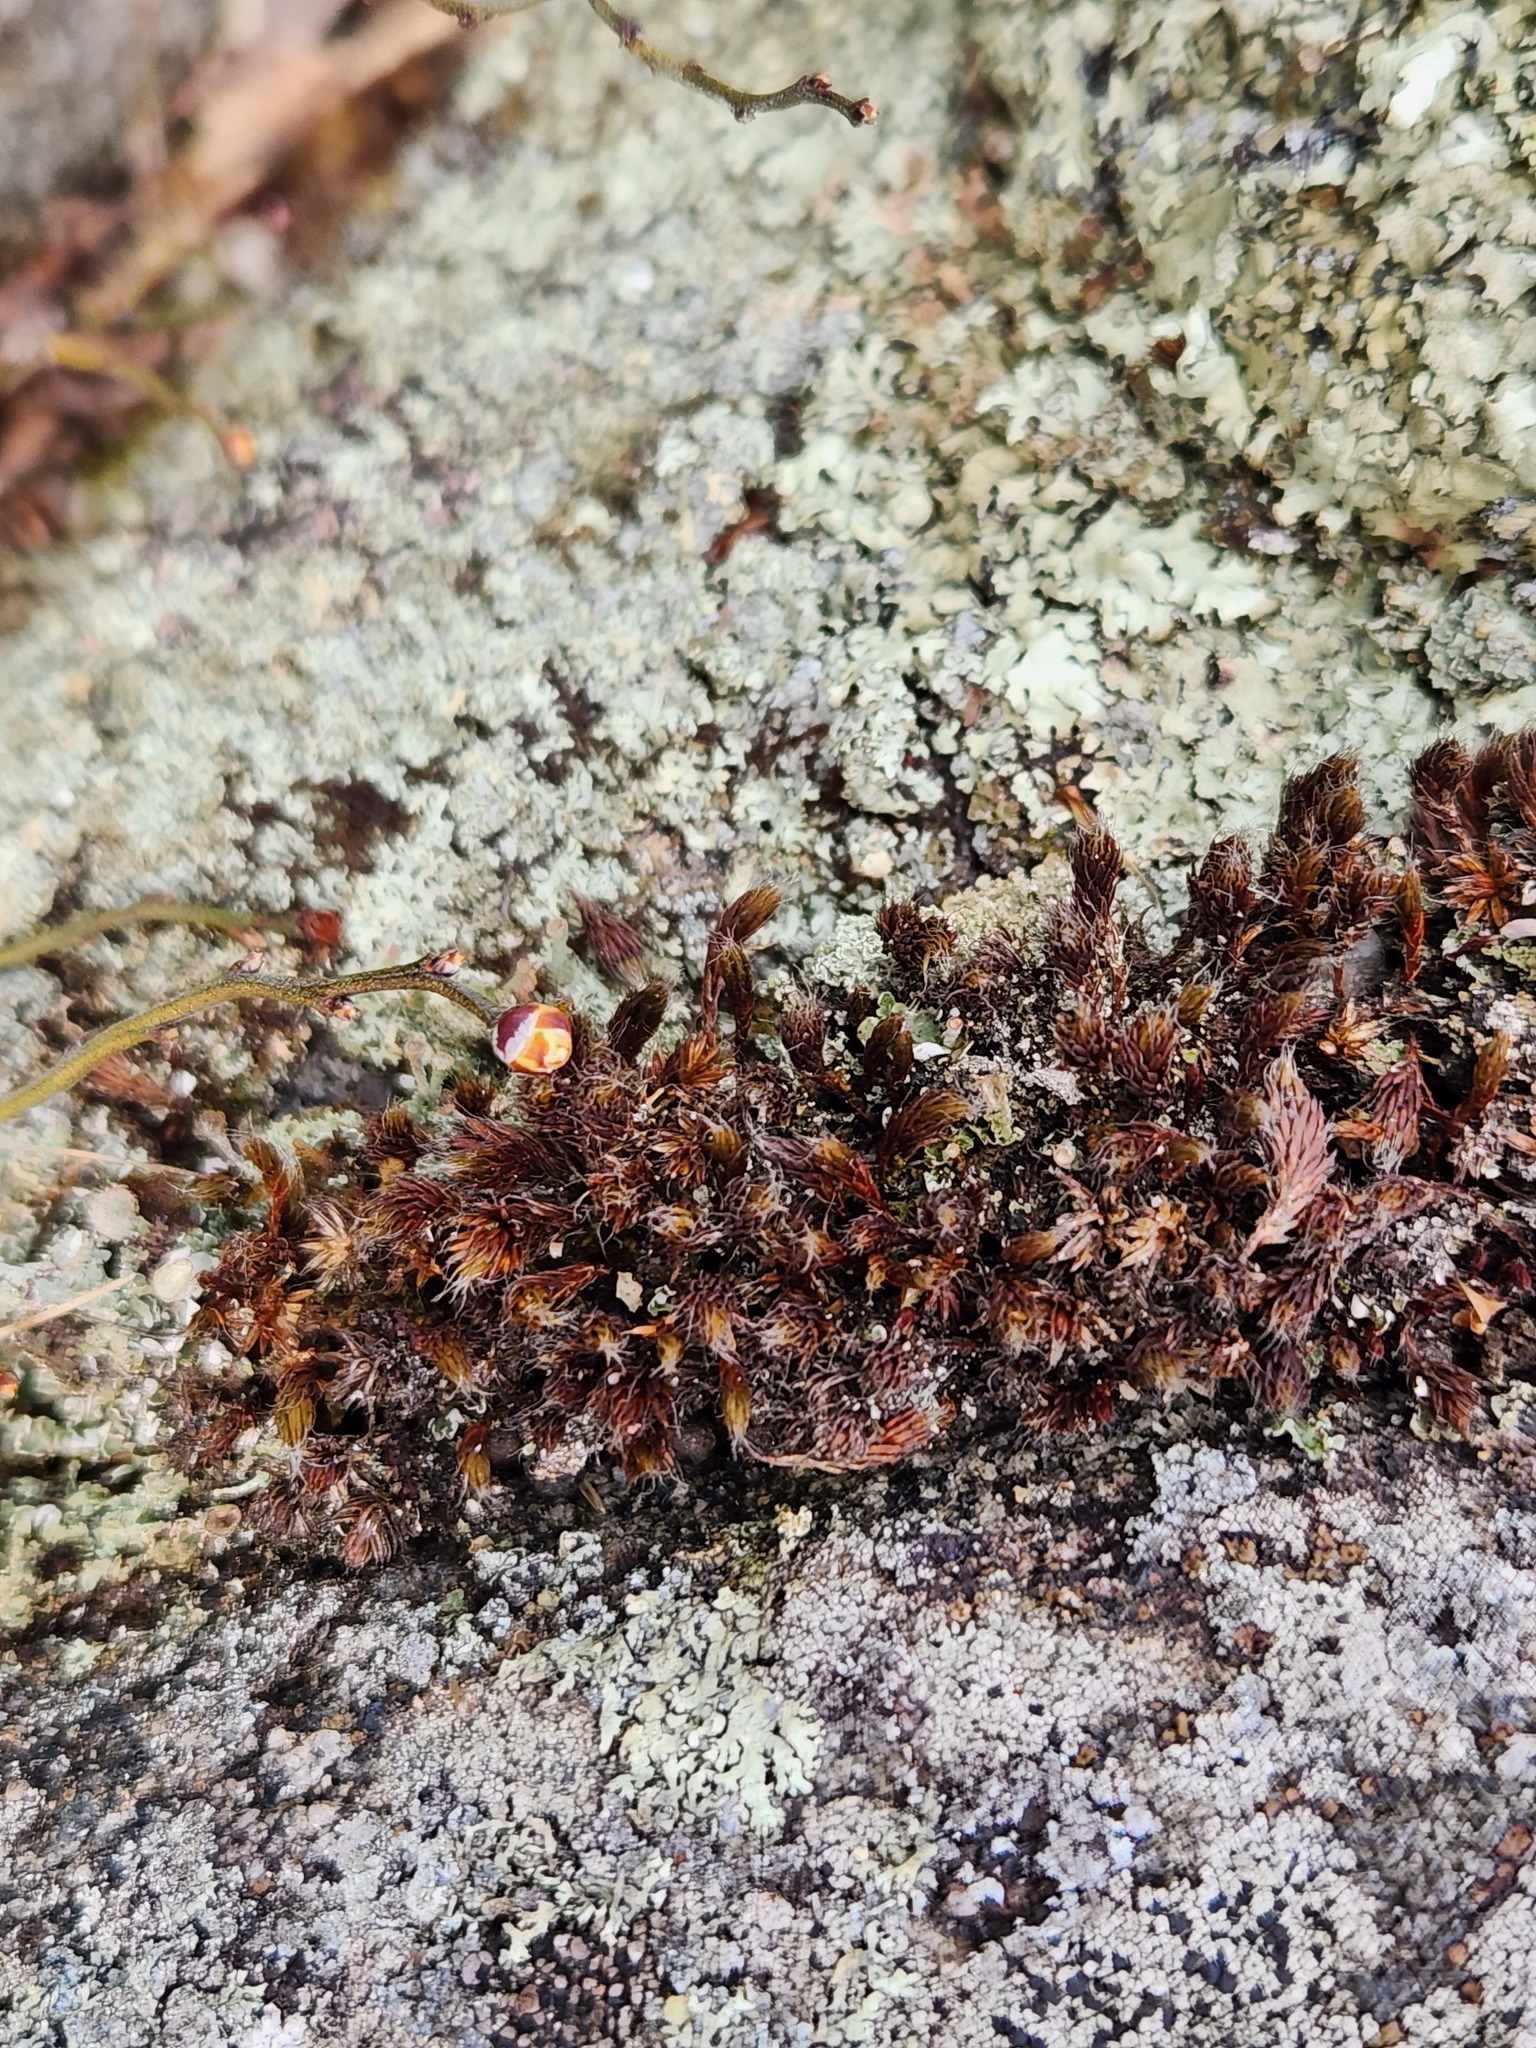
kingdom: Plantae
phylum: Bryophyta
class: Polytrichopsida
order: Polytrichales
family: Polytrichaceae
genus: Polytrichum
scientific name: Polytrichum piliferum
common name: Bristly haircap
